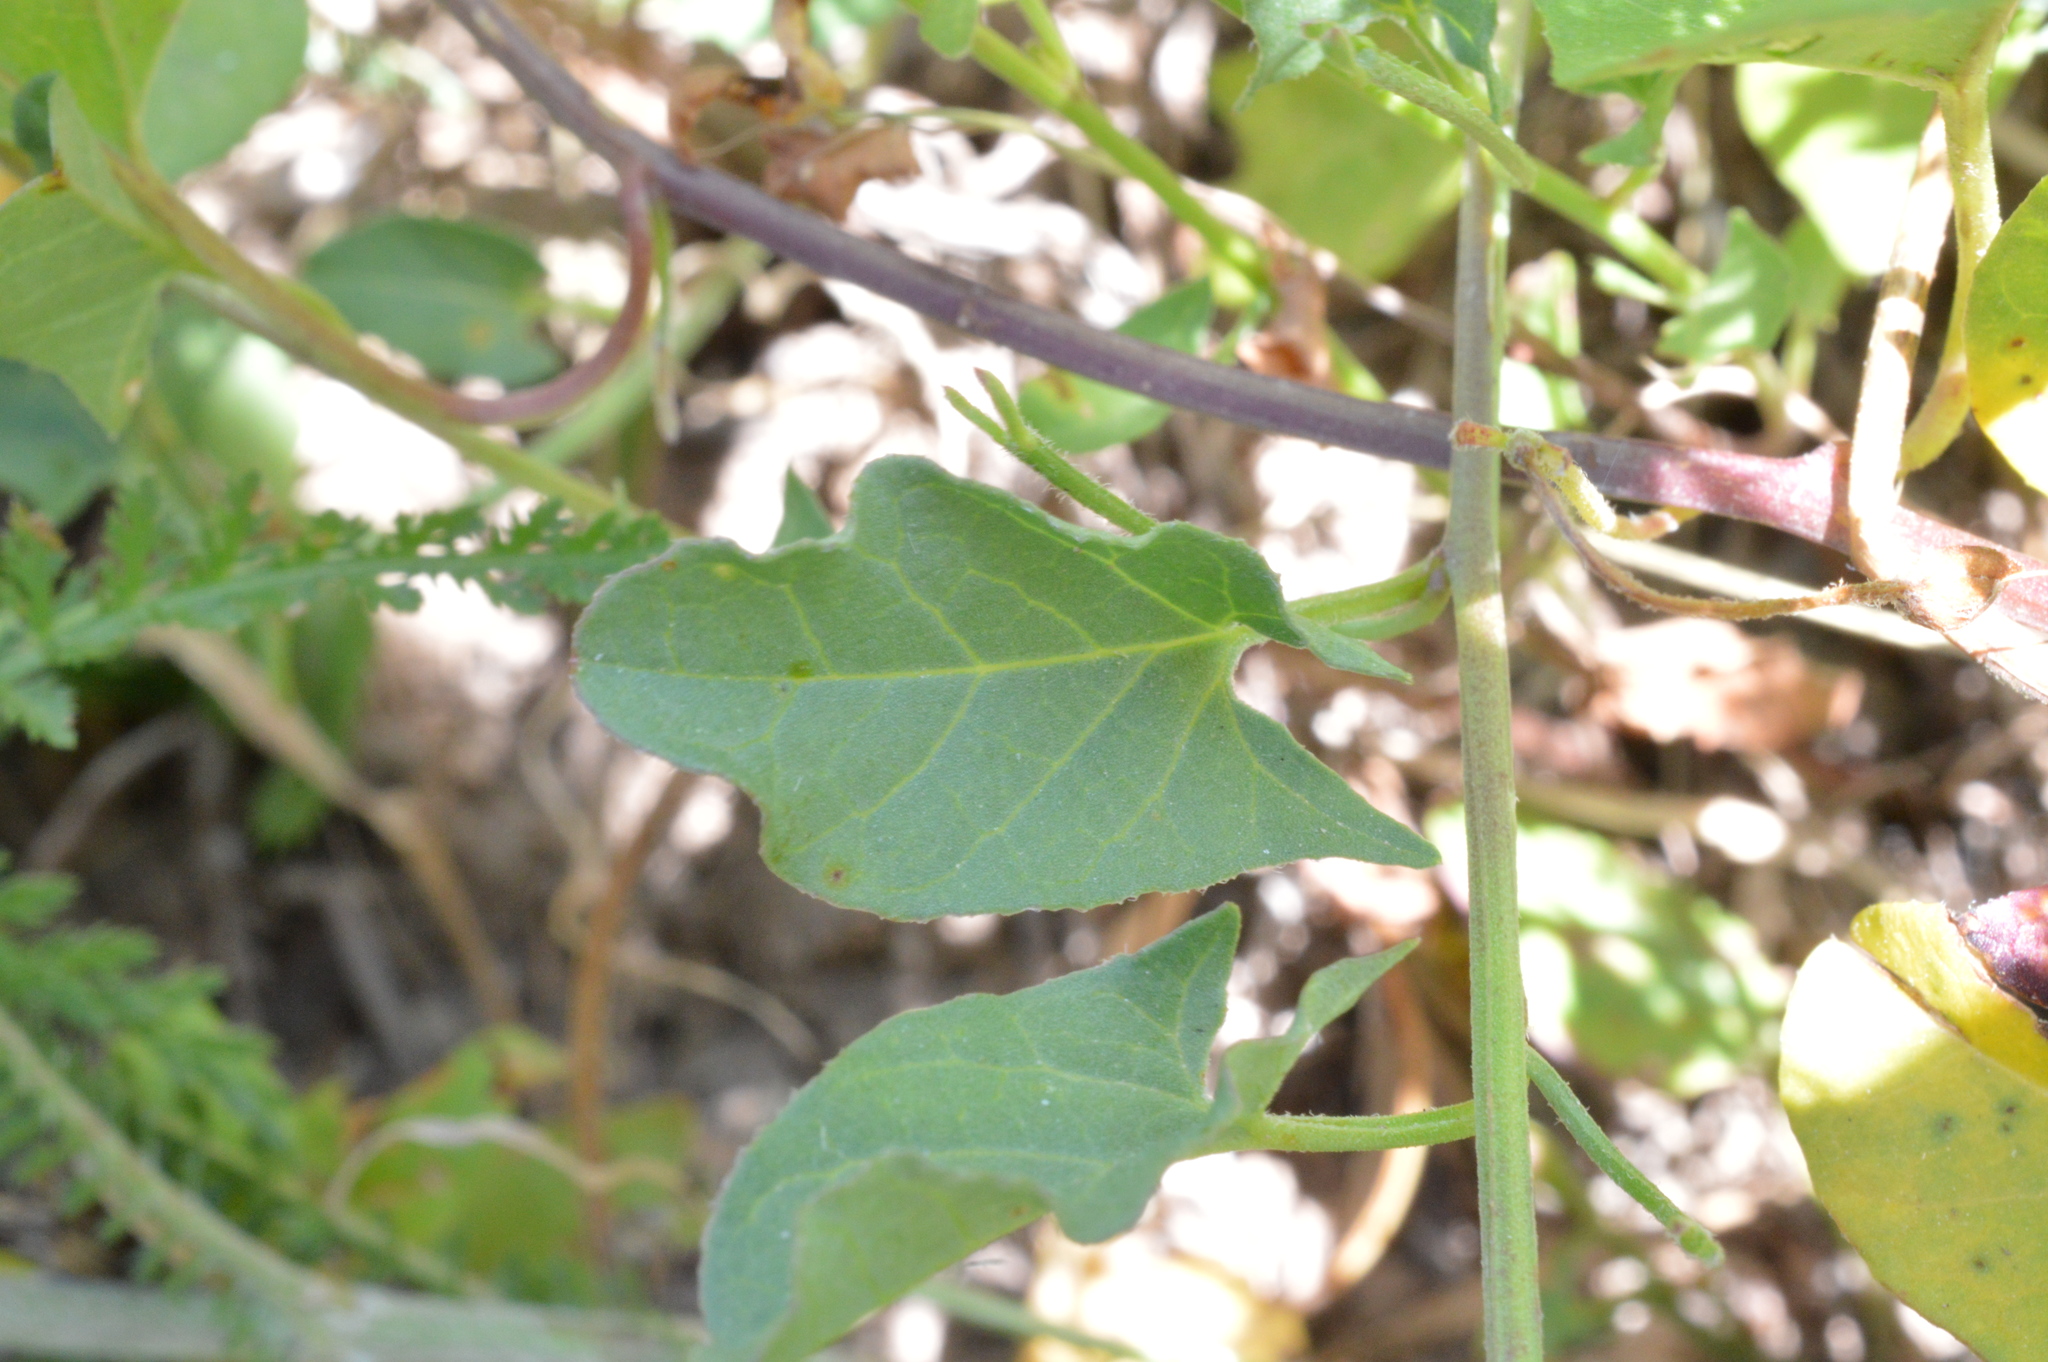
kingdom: Plantae
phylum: Tracheophyta
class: Magnoliopsida
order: Solanales
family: Convolvulaceae
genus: Convolvulus
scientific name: Convolvulus arvensis
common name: Field bindweed
